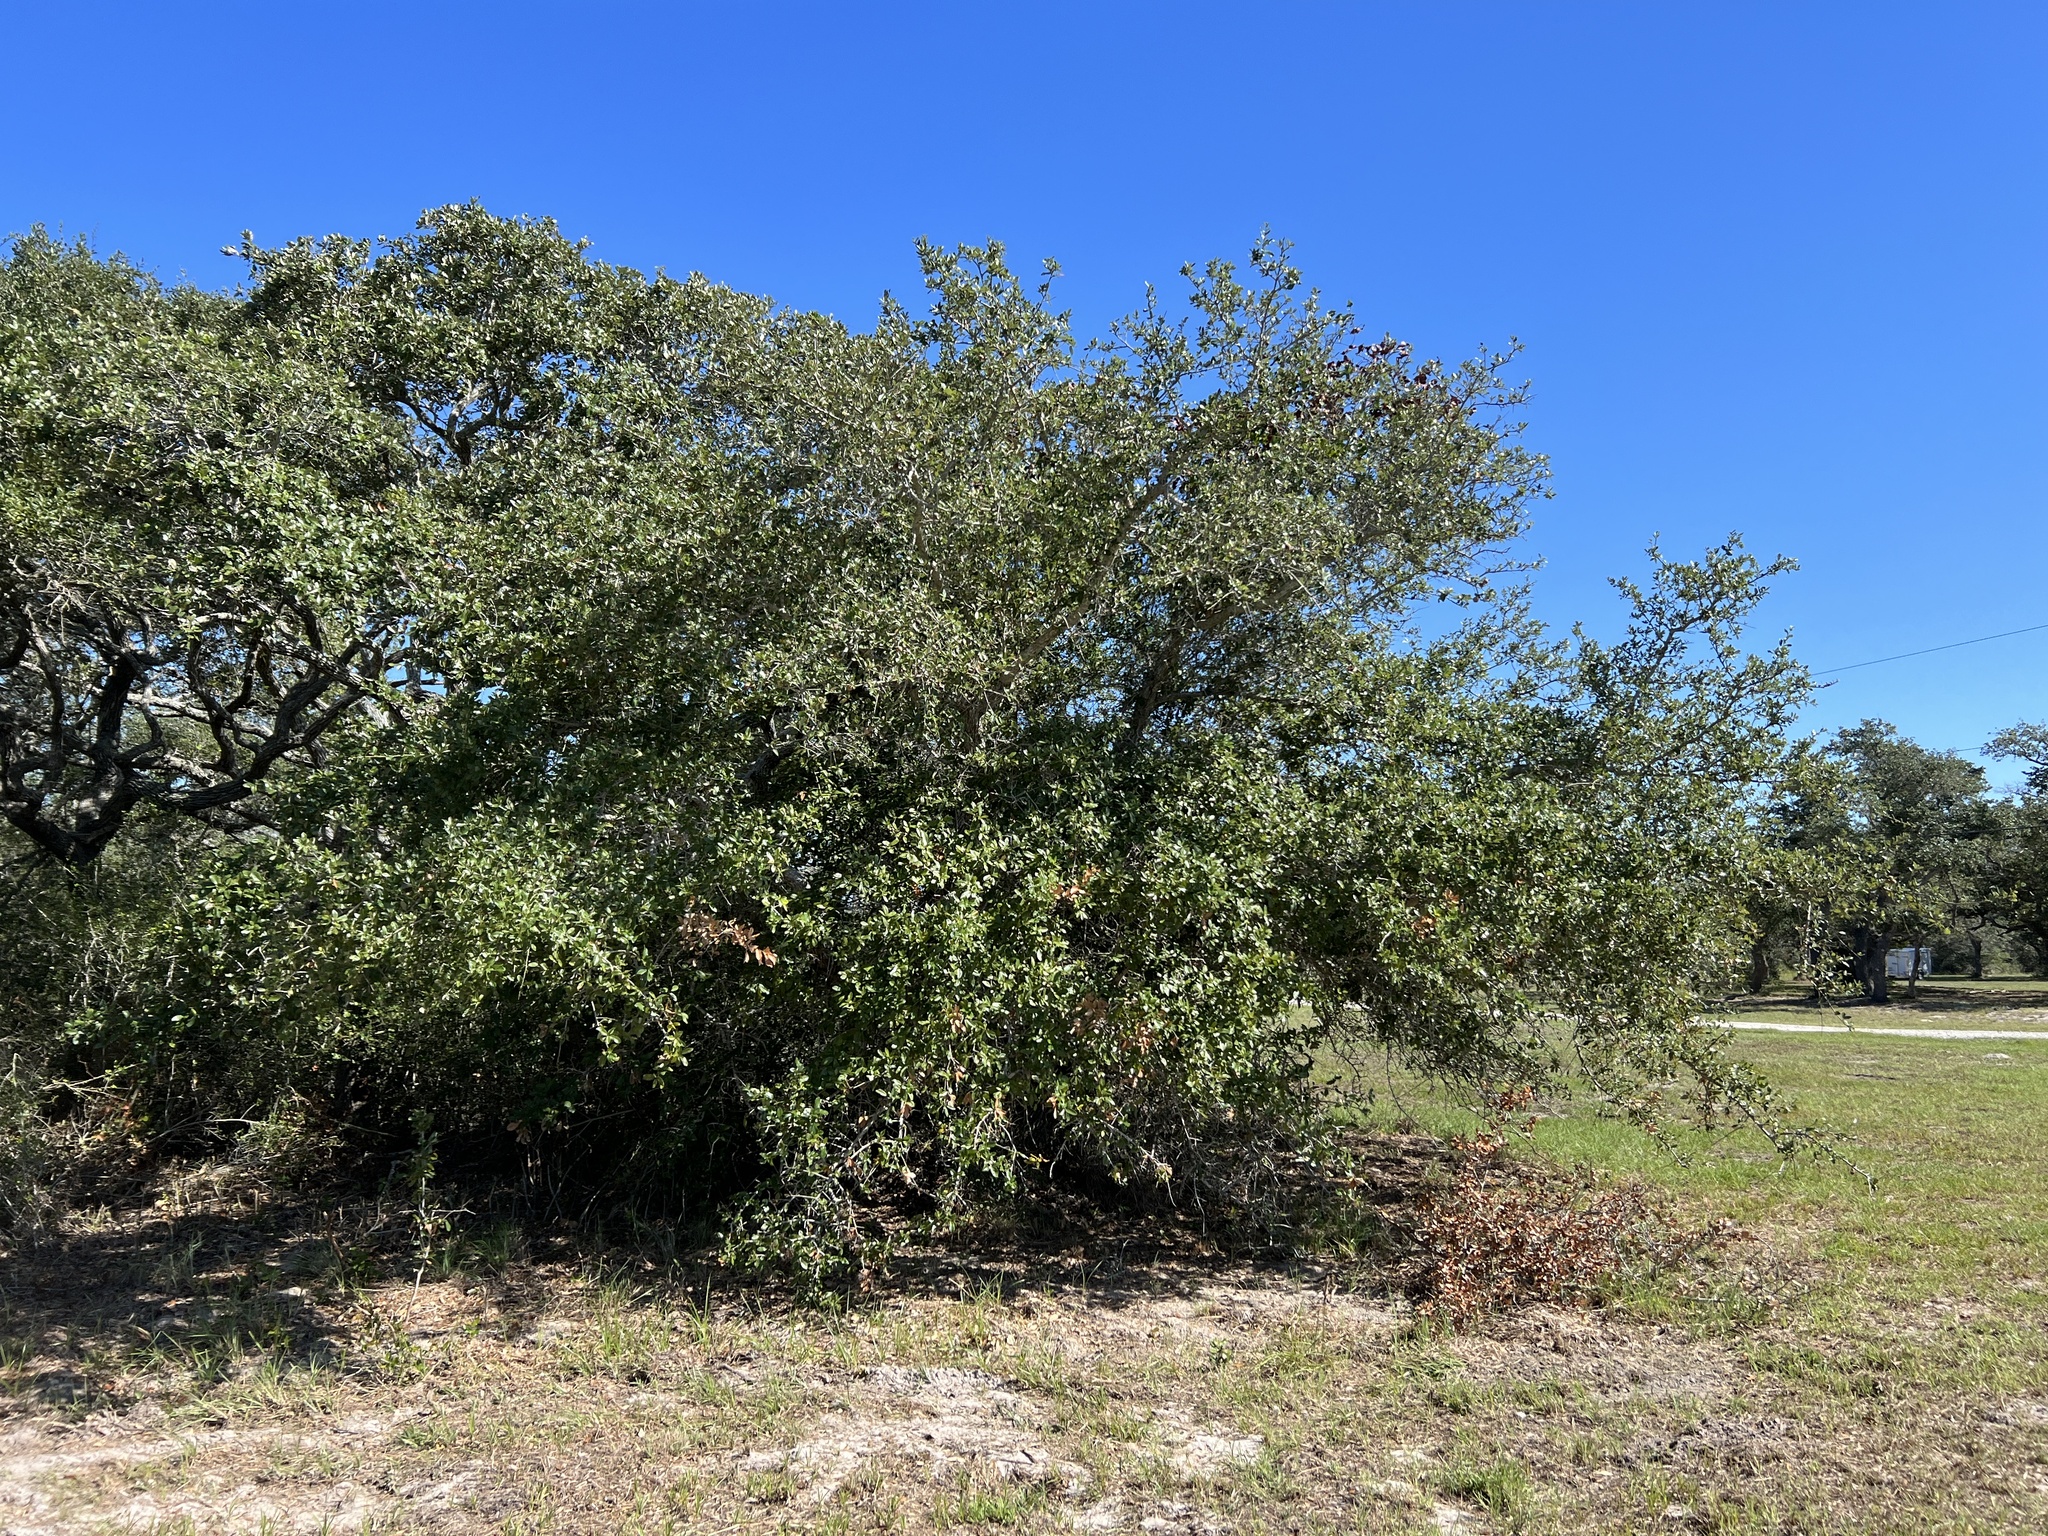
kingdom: Plantae
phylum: Tracheophyta
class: Magnoliopsida
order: Fagales
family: Fagaceae
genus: Quercus
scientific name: Quercus fusiformis
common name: Texas live oak
